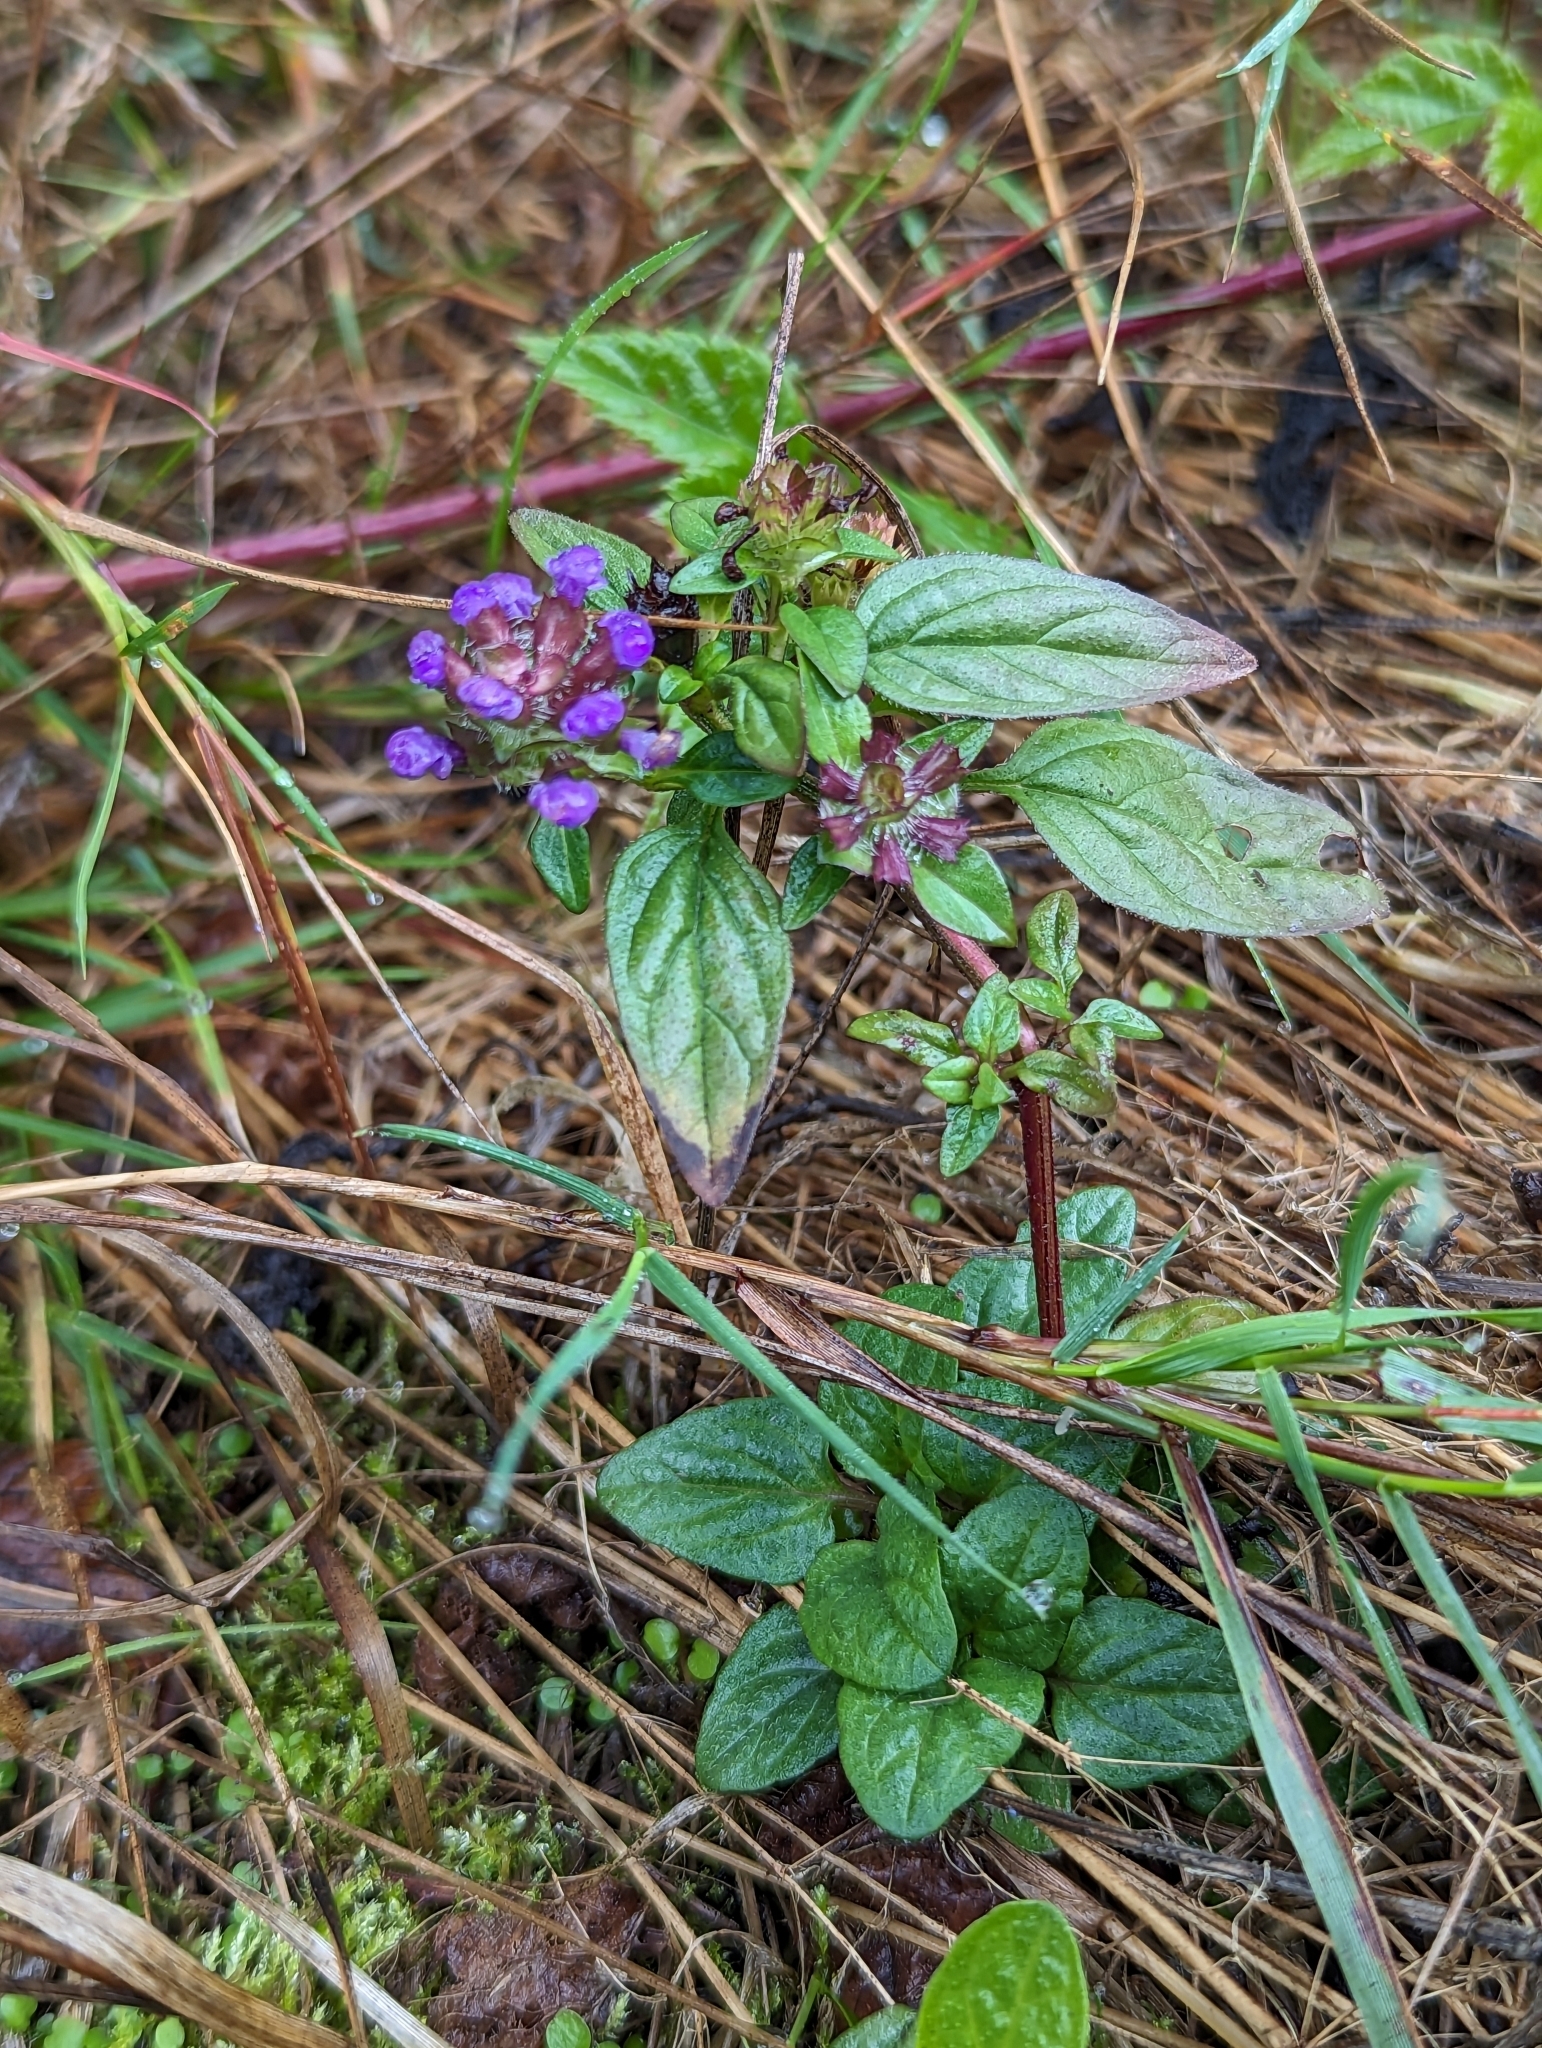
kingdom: Plantae
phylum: Tracheophyta
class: Magnoliopsida
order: Lamiales
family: Lamiaceae
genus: Prunella
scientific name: Prunella vulgaris
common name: Heal-all
